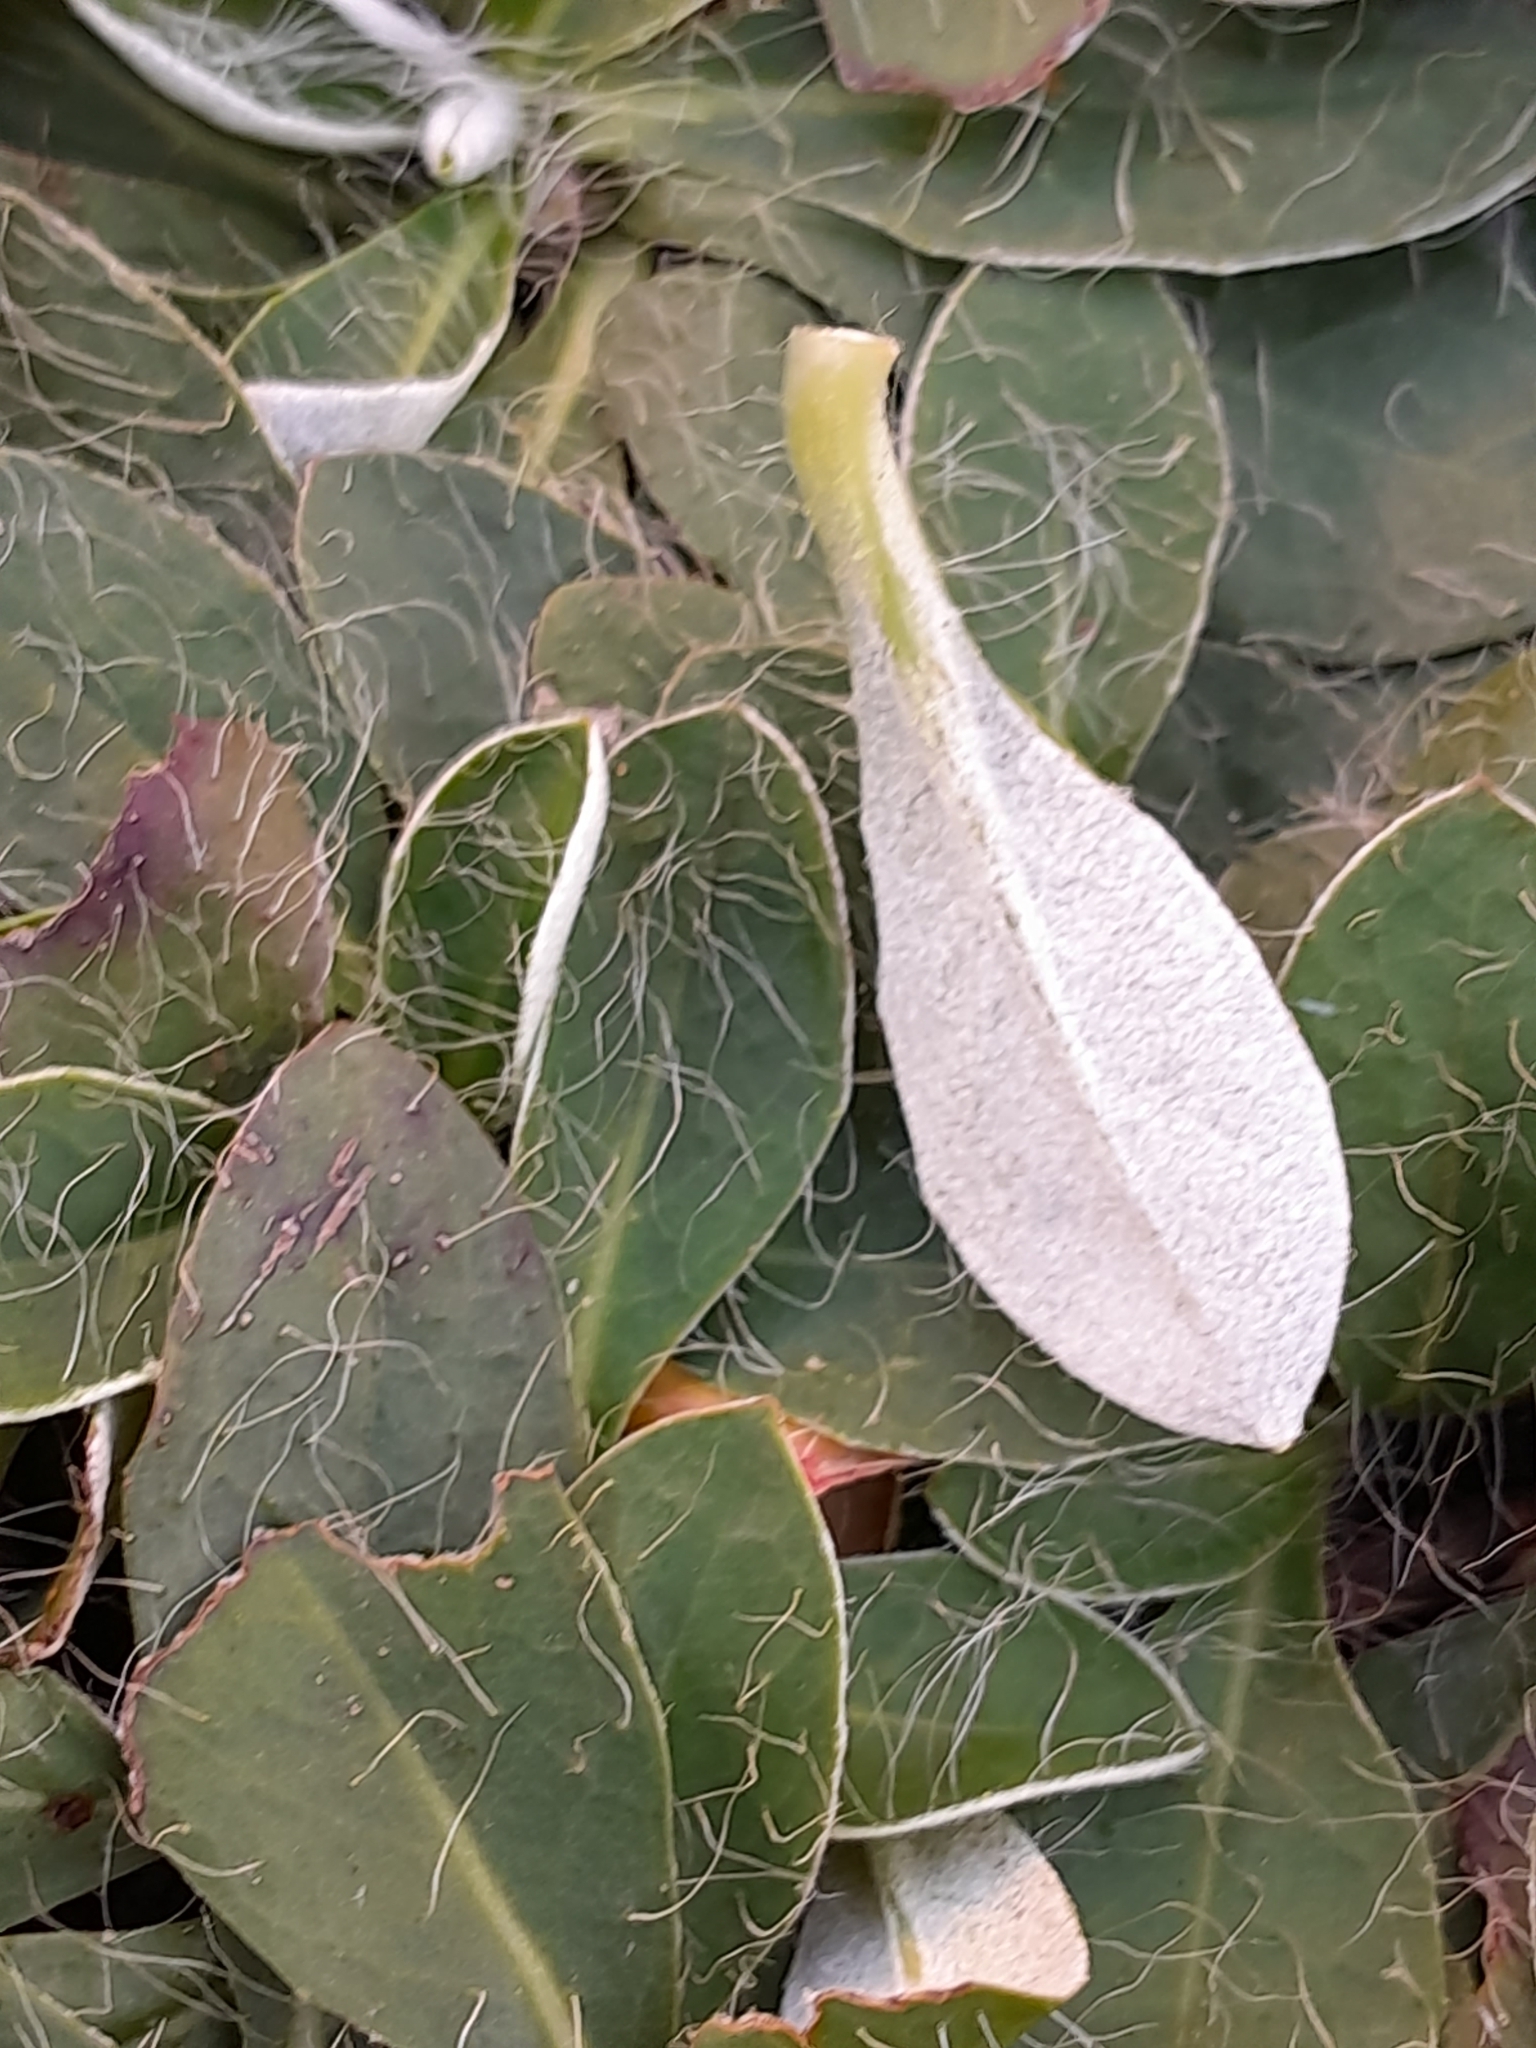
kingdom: Plantae
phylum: Tracheophyta
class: Magnoliopsida
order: Asterales
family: Asteraceae
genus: Pilosella
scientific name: Pilosella officinarum
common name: Mouse-ear hawkweed
